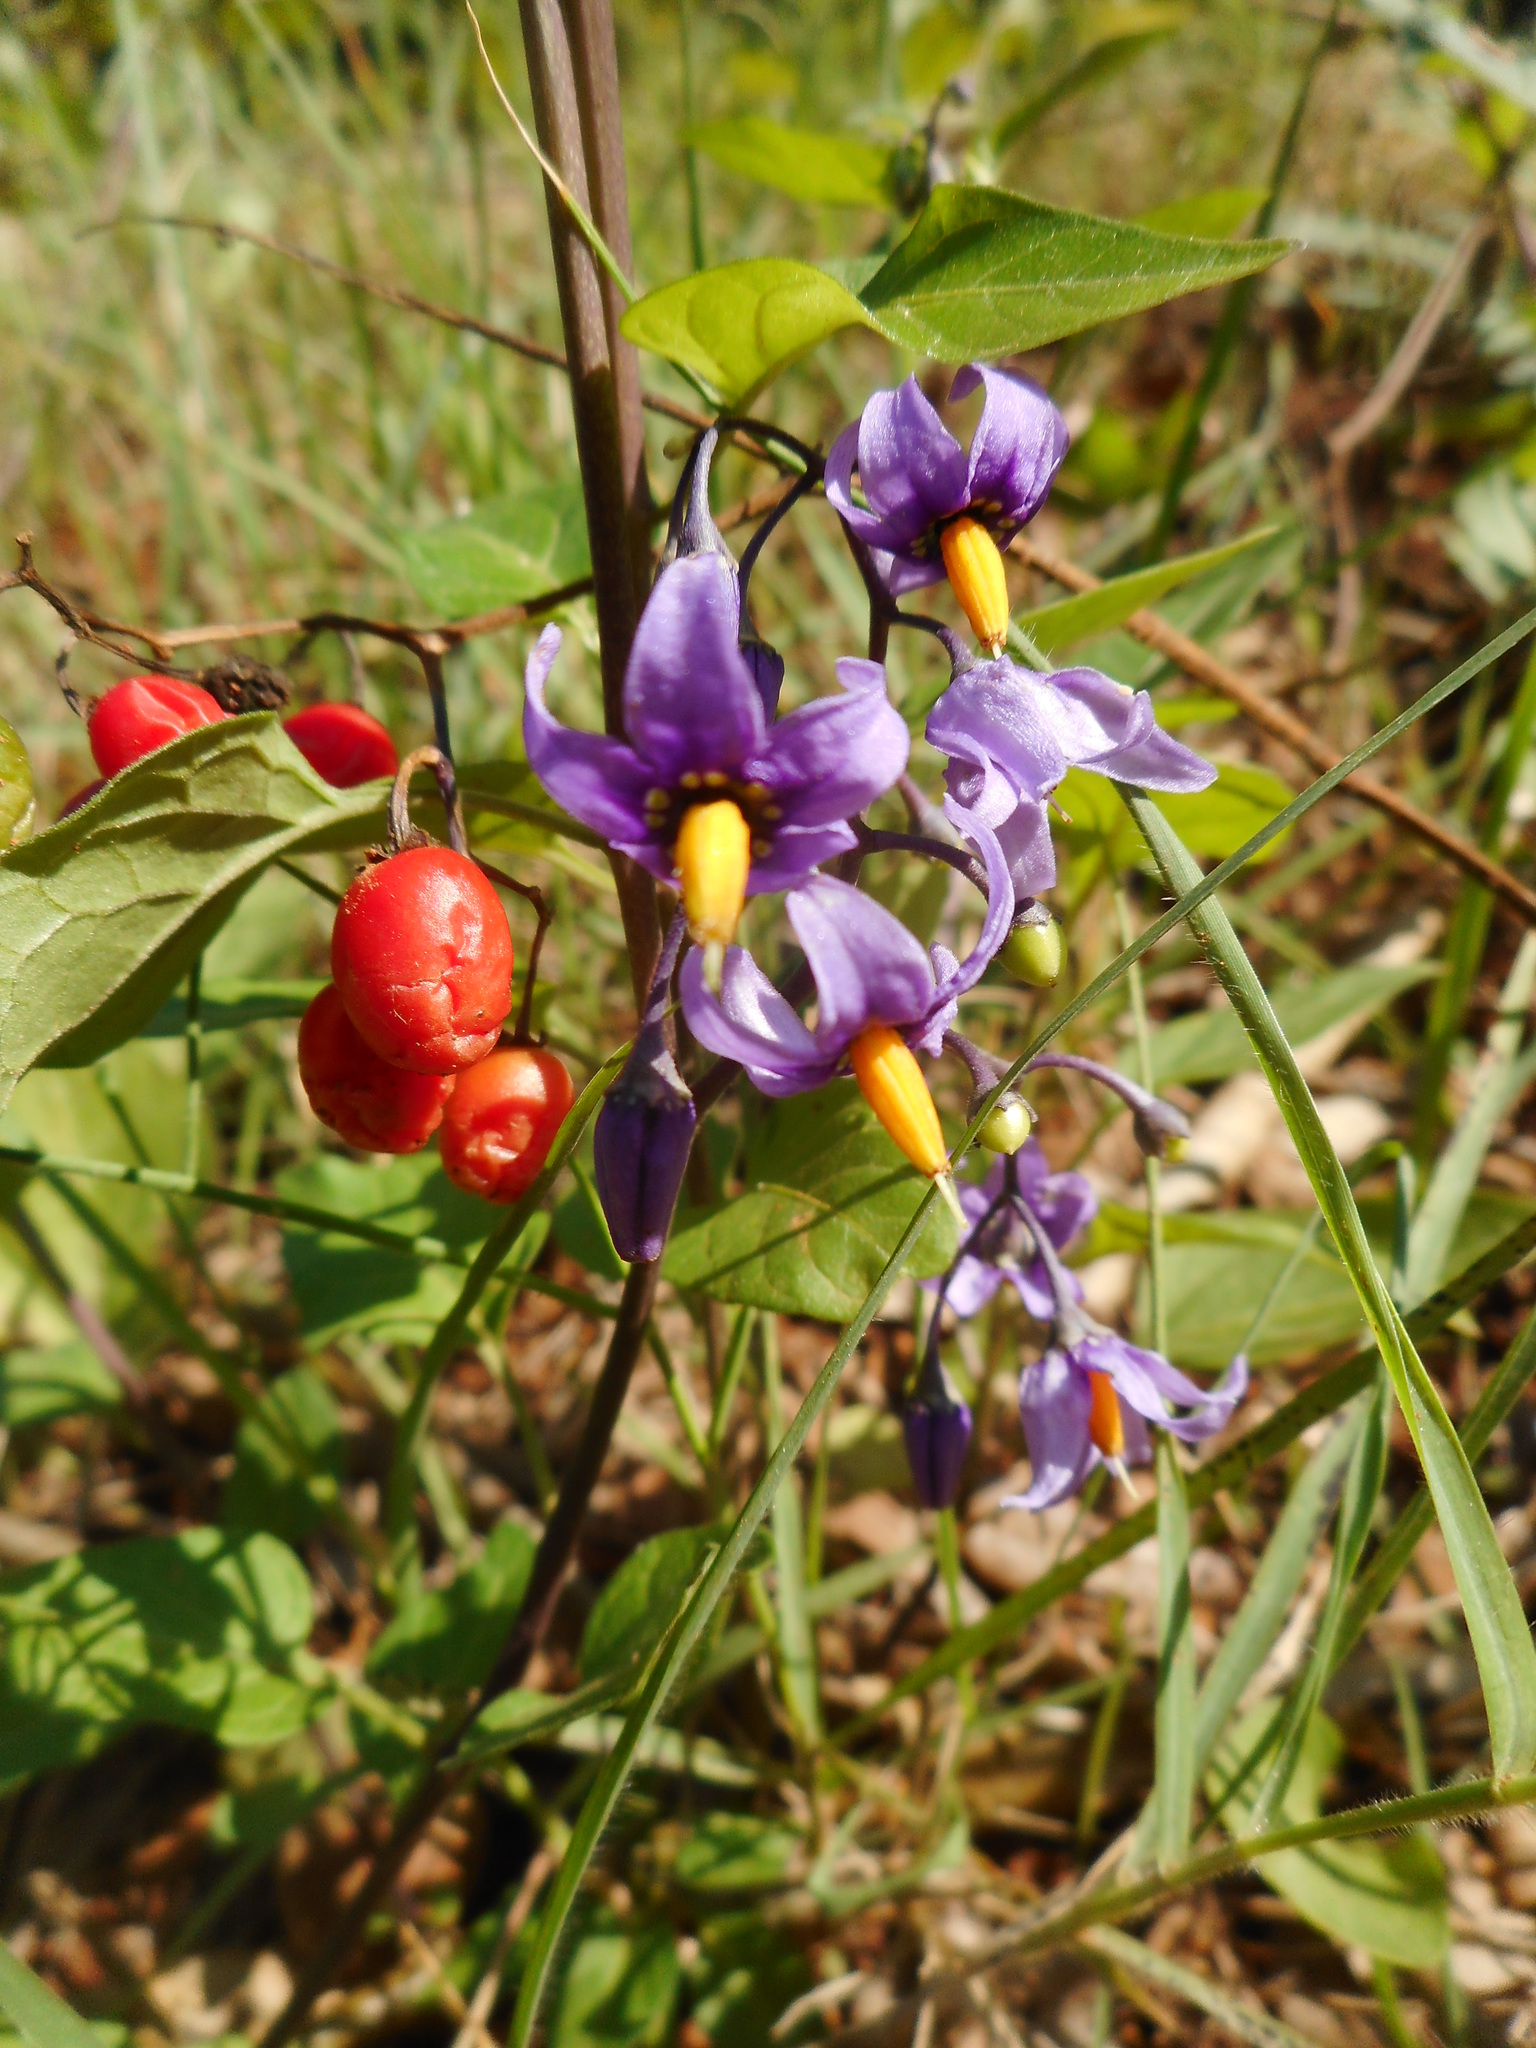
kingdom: Plantae
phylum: Tracheophyta
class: Magnoliopsida
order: Solanales
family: Solanaceae
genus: Solanum
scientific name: Solanum dulcamara
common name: Climbing nightshade
